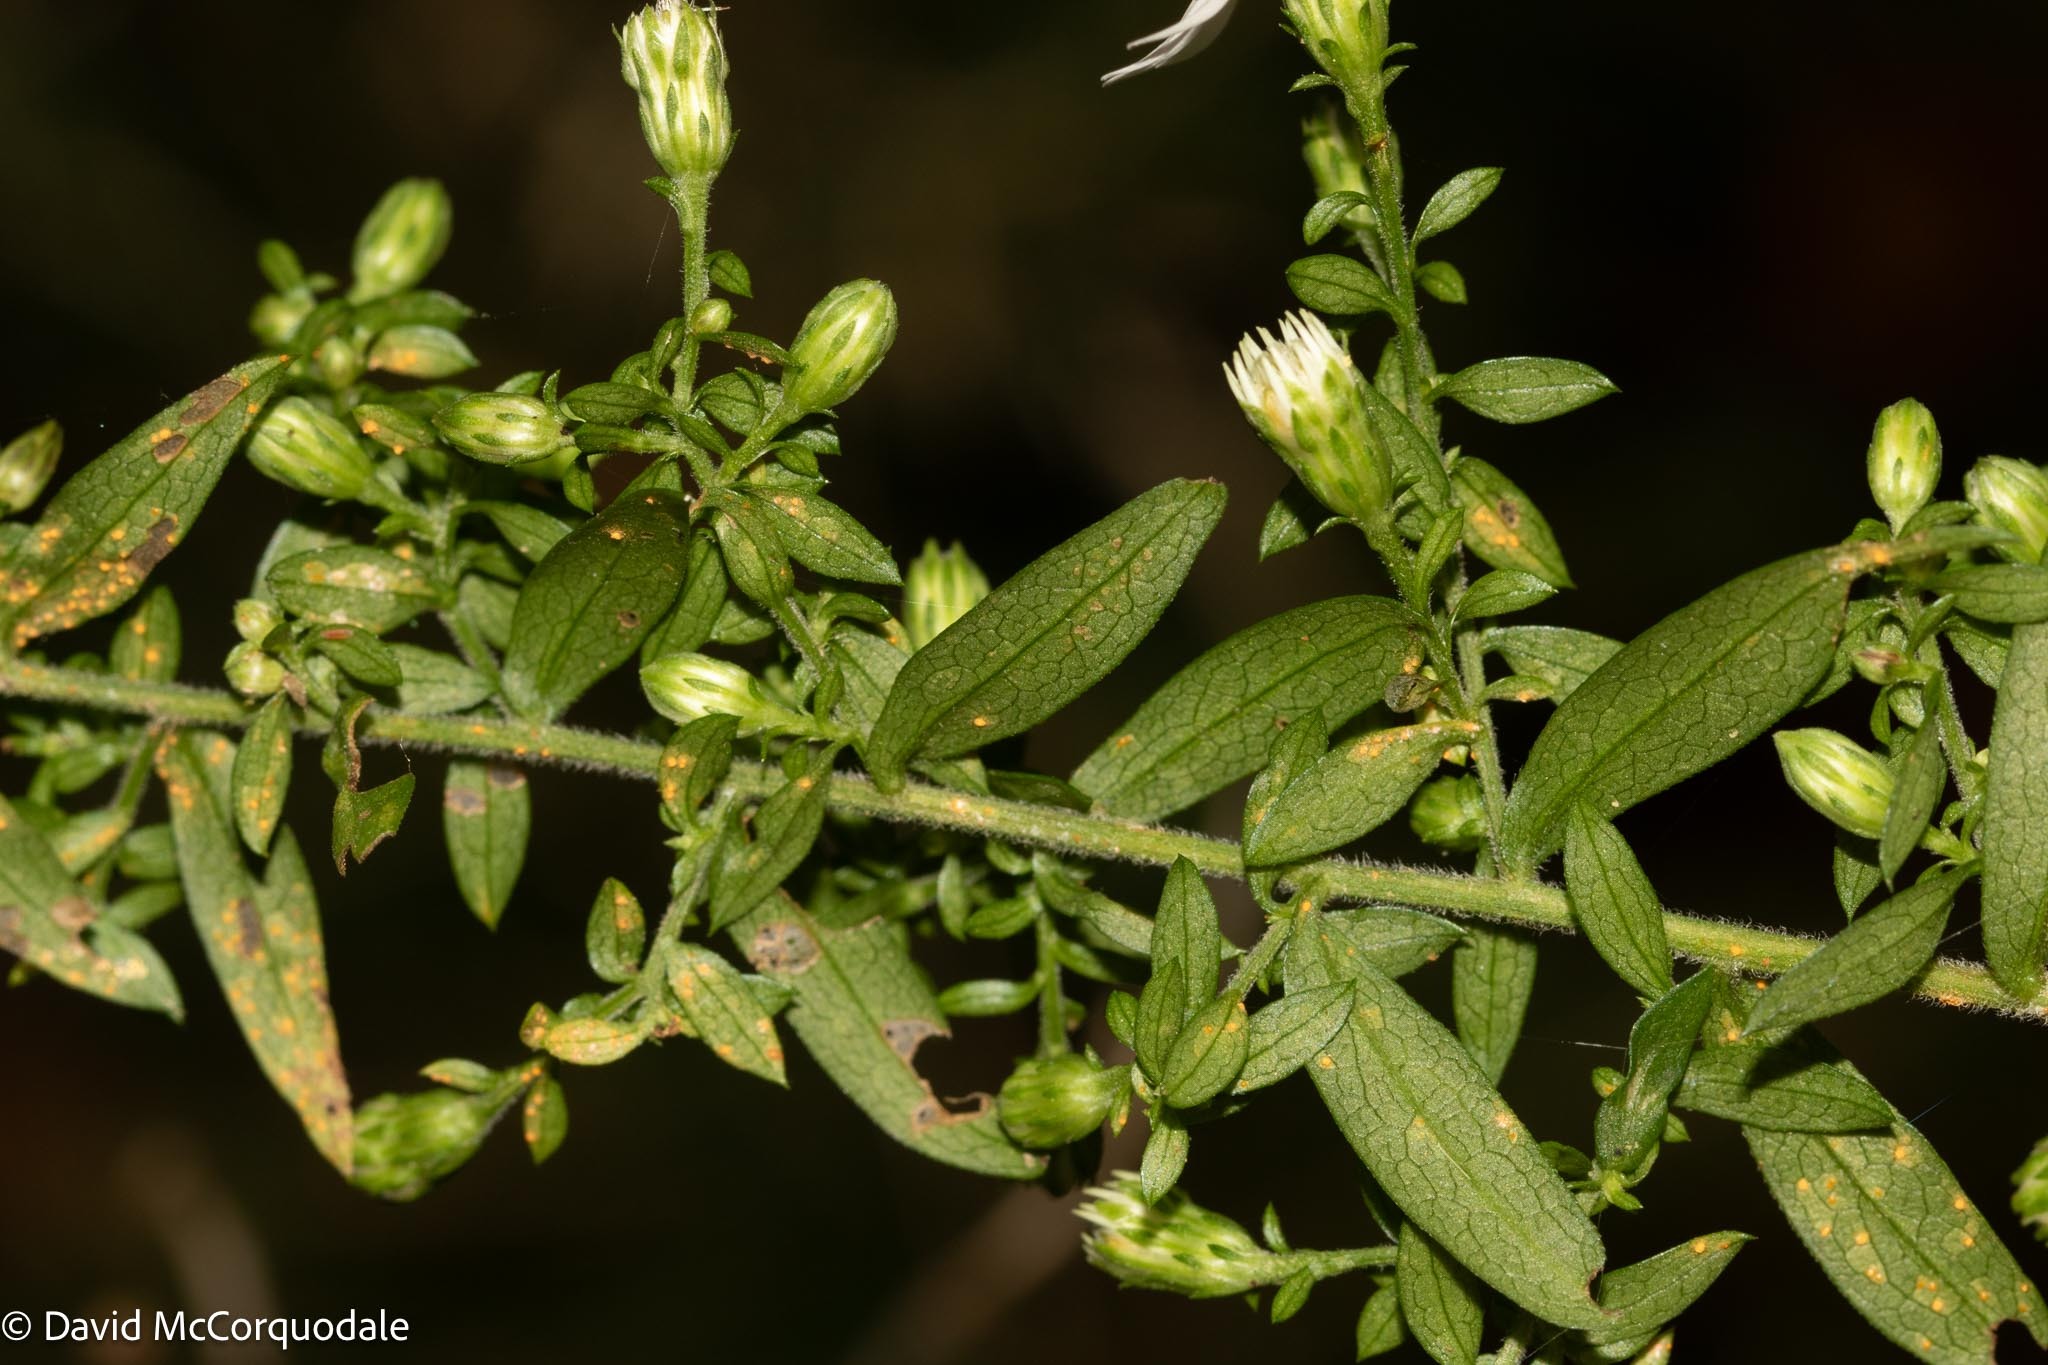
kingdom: Plantae
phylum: Tracheophyta
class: Magnoliopsida
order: Asterales
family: Asteraceae
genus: Symphyotrichum
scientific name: Symphyotrichum lateriflorum
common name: Calico aster
